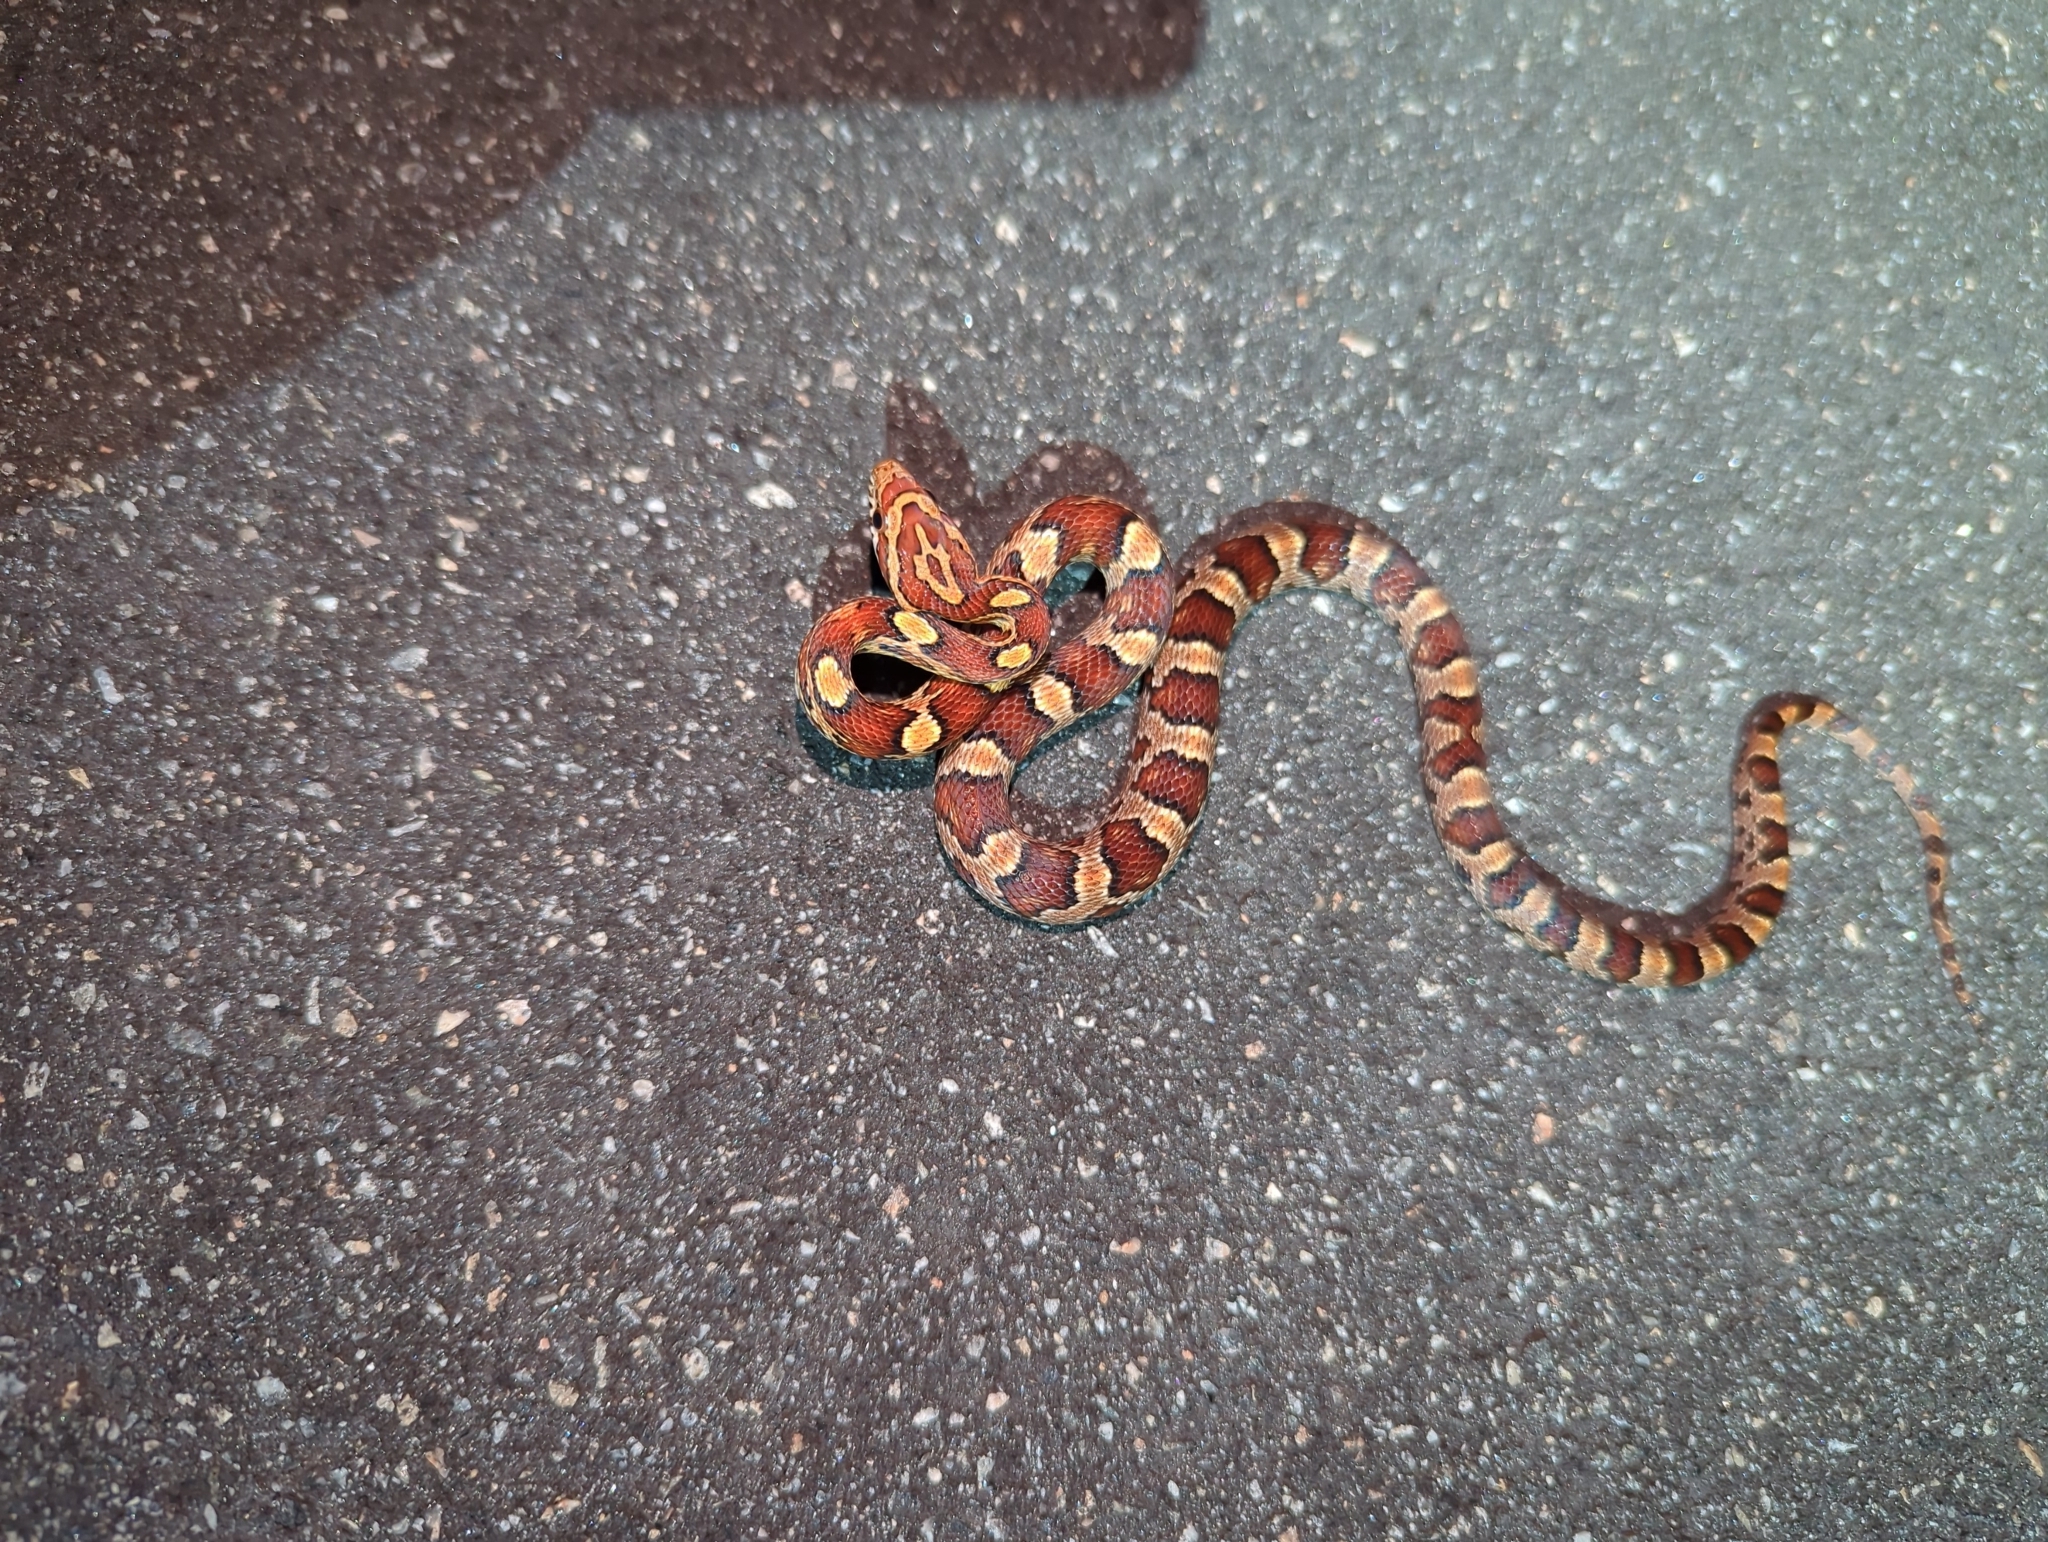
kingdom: Animalia
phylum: Chordata
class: Squamata
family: Colubridae
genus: Pantherophis
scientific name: Pantherophis guttatus
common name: Red cornsnake
